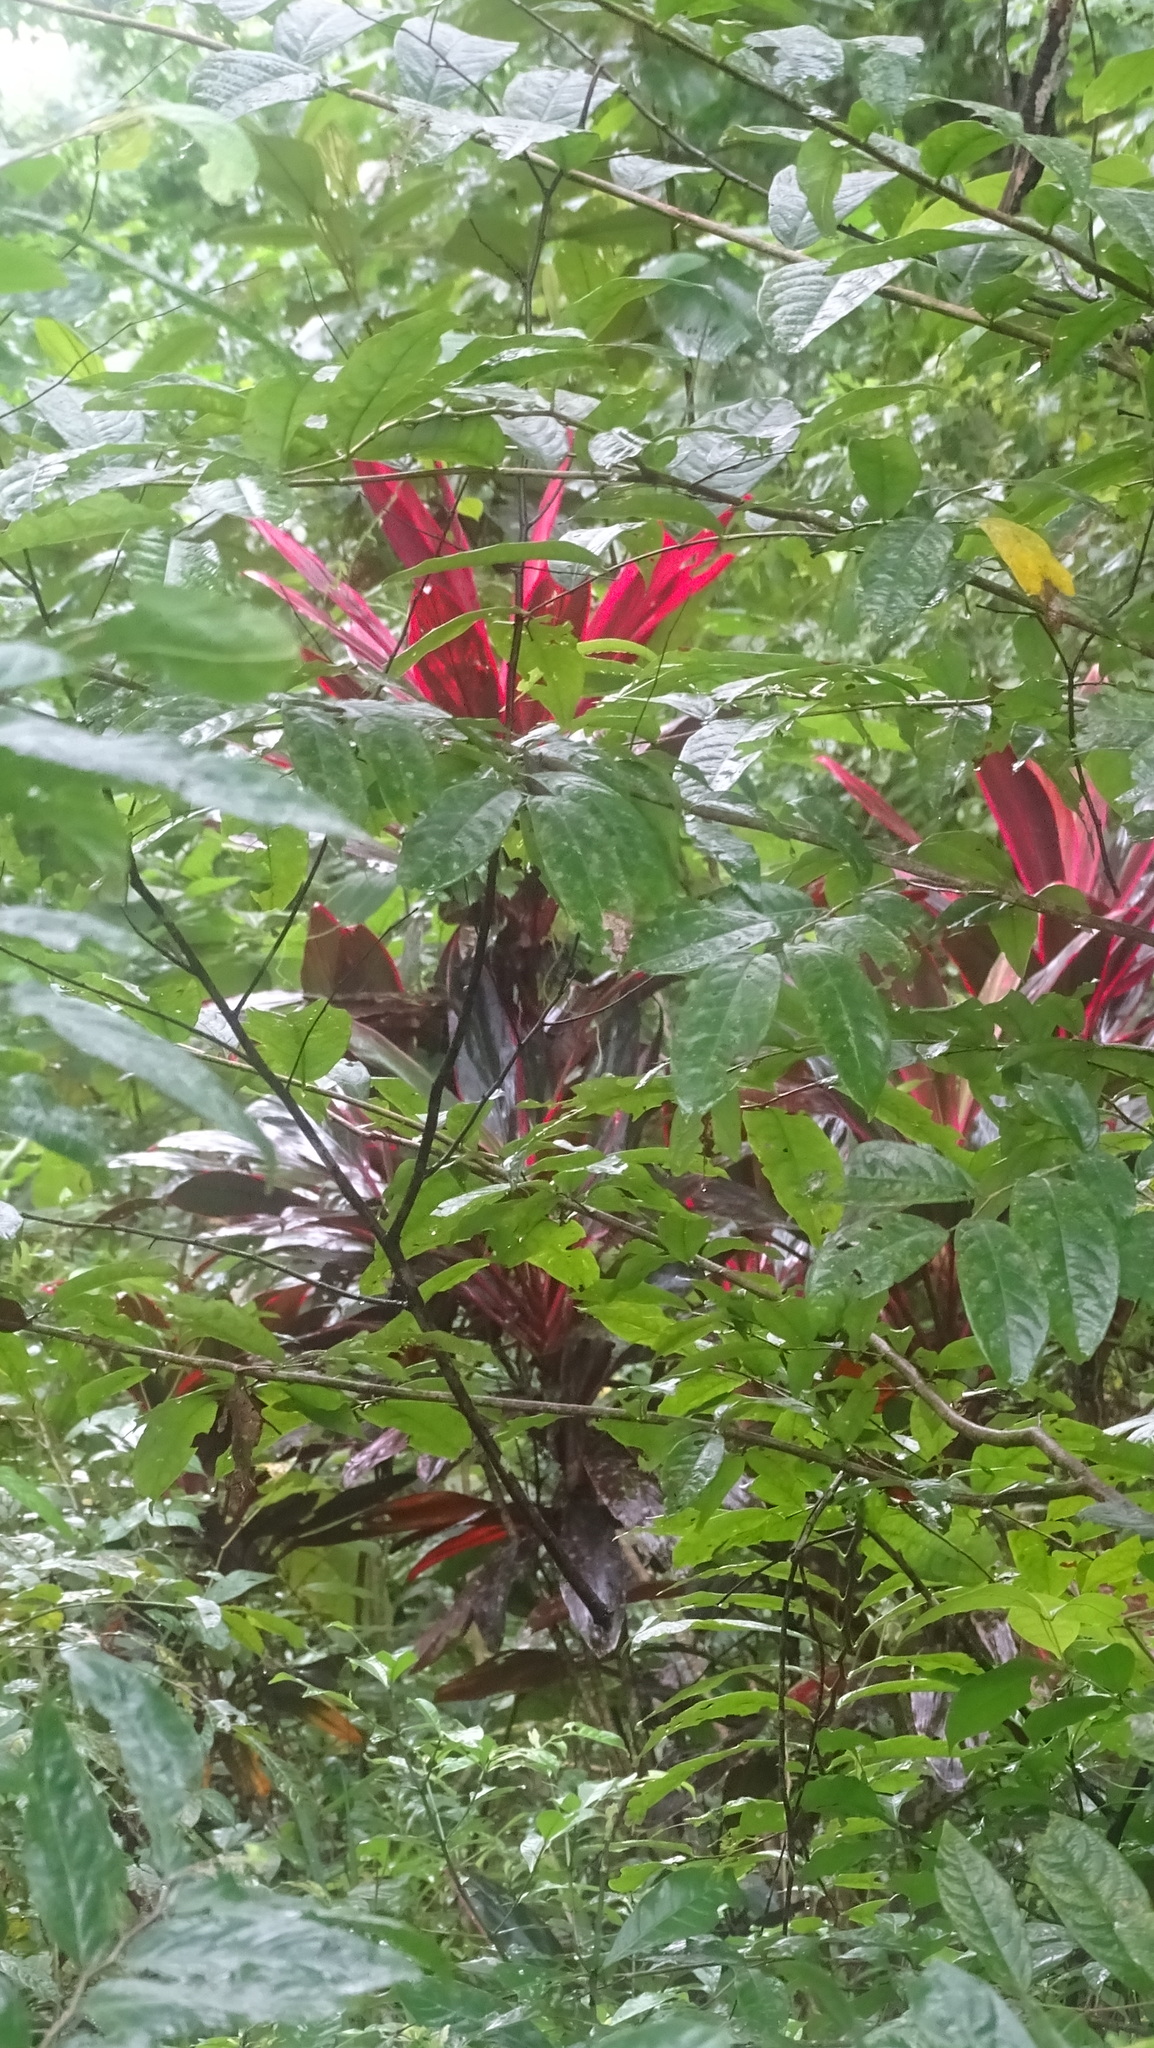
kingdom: Plantae
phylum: Tracheophyta
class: Liliopsida
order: Asparagales
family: Asparagaceae
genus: Cordyline
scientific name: Cordyline fruticosa
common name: Good-luck-plant
